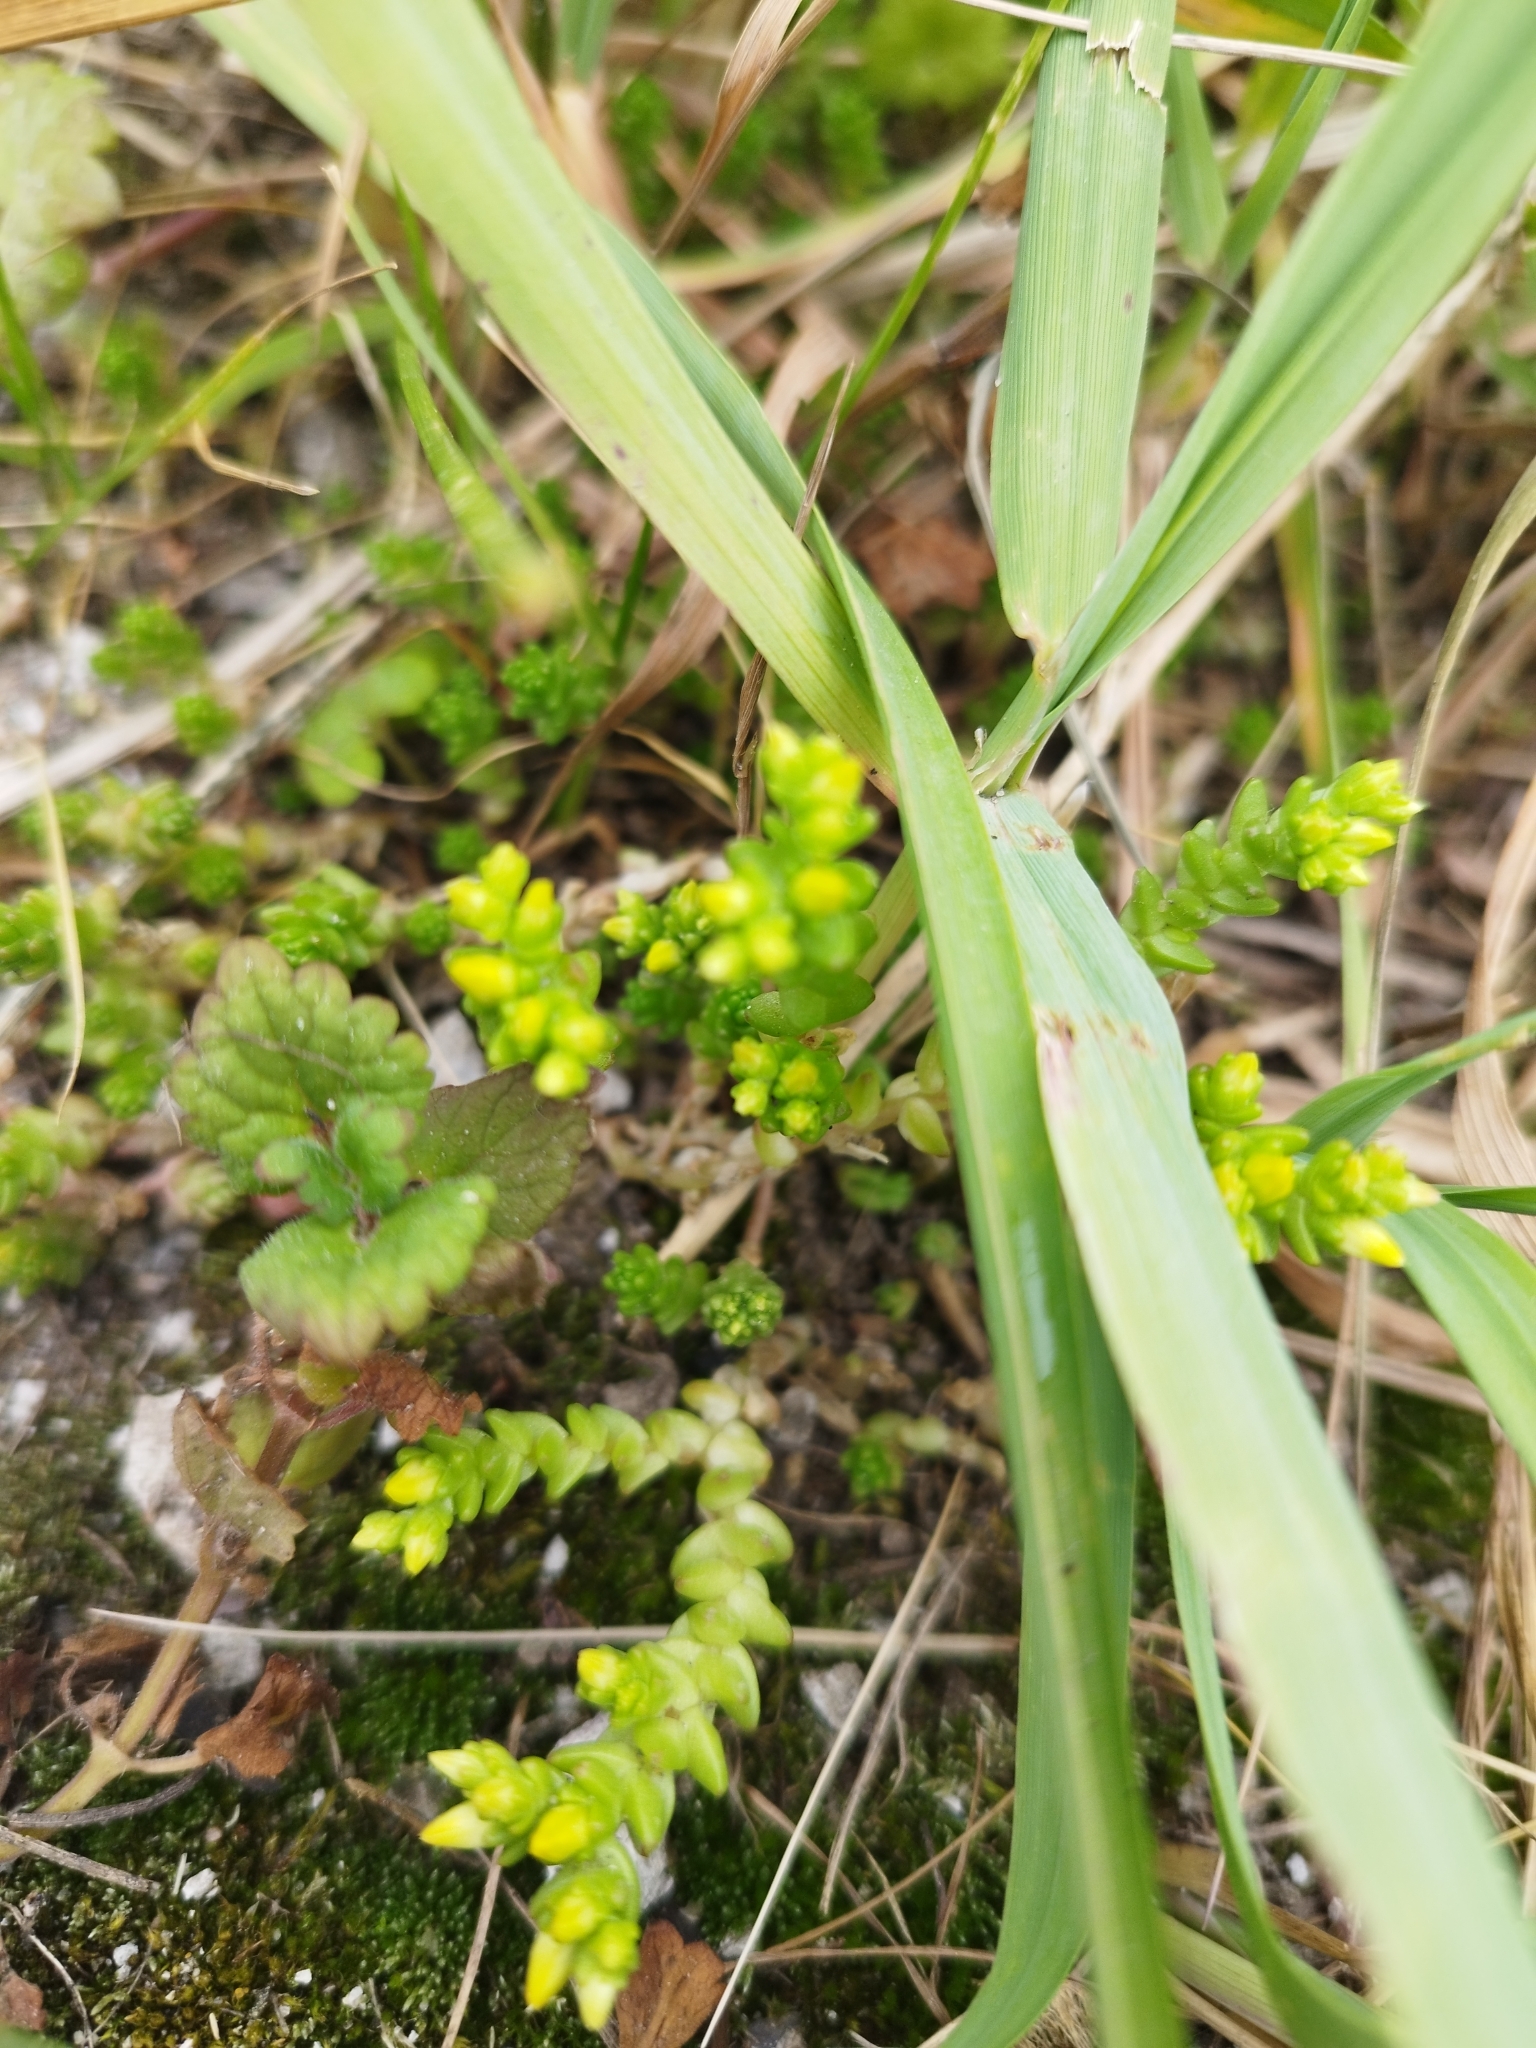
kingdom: Plantae
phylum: Tracheophyta
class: Magnoliopsida
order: Saxifragales
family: Crassulaceae
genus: Sedum
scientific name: Sedum acre
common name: Biting stonecrop
